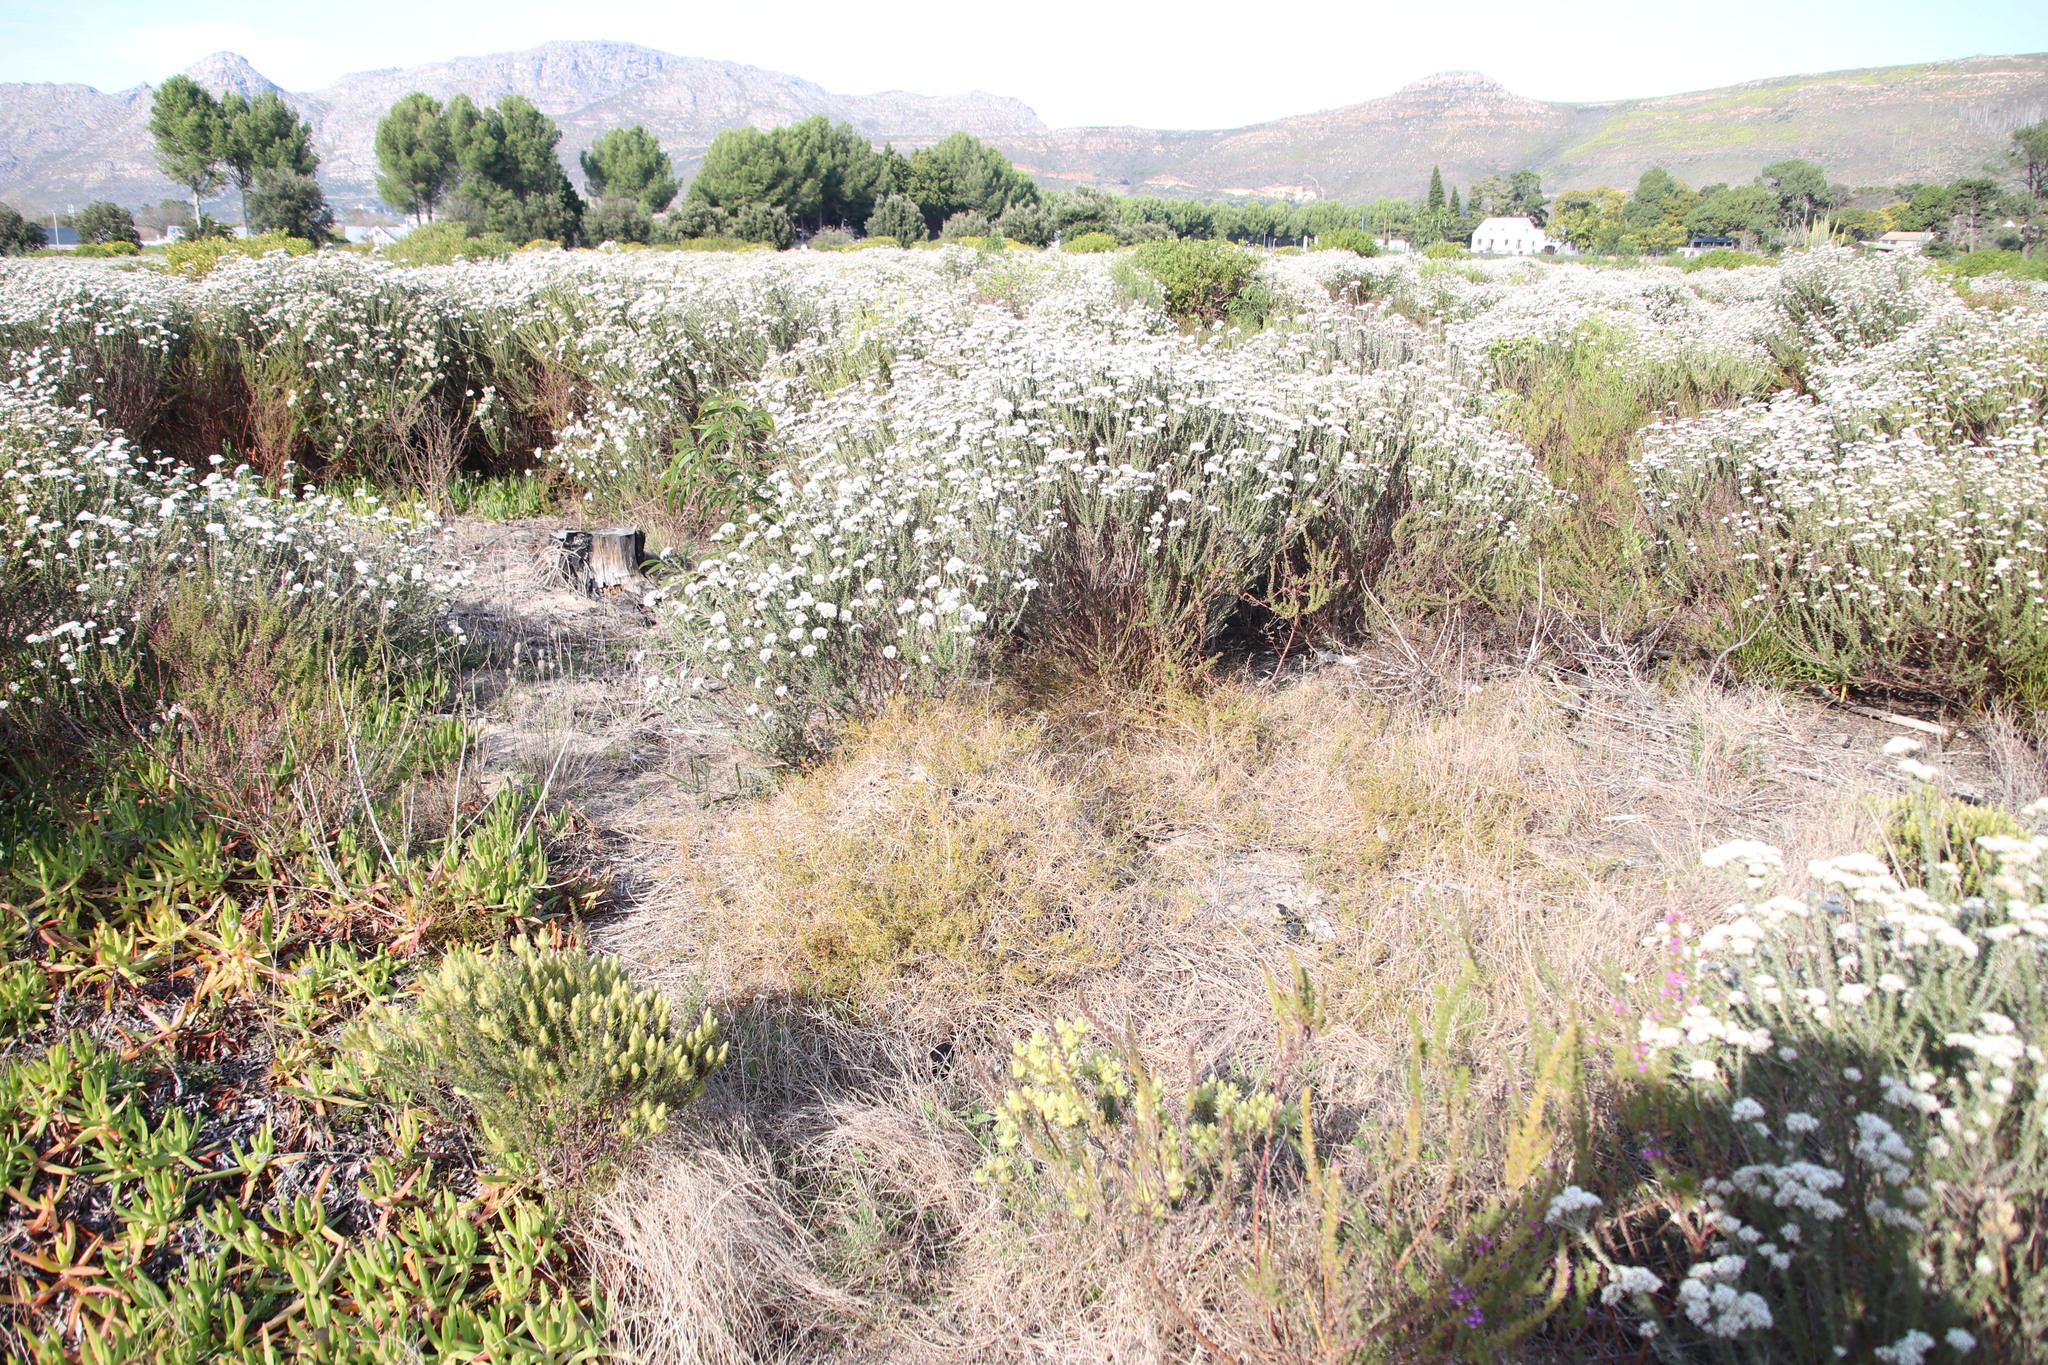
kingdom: Plantae
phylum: Tracheophyta
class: Magnoliopsida
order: Fabales
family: Fabaceae
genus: Aspalathus
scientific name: Aspalathus retroflexa
